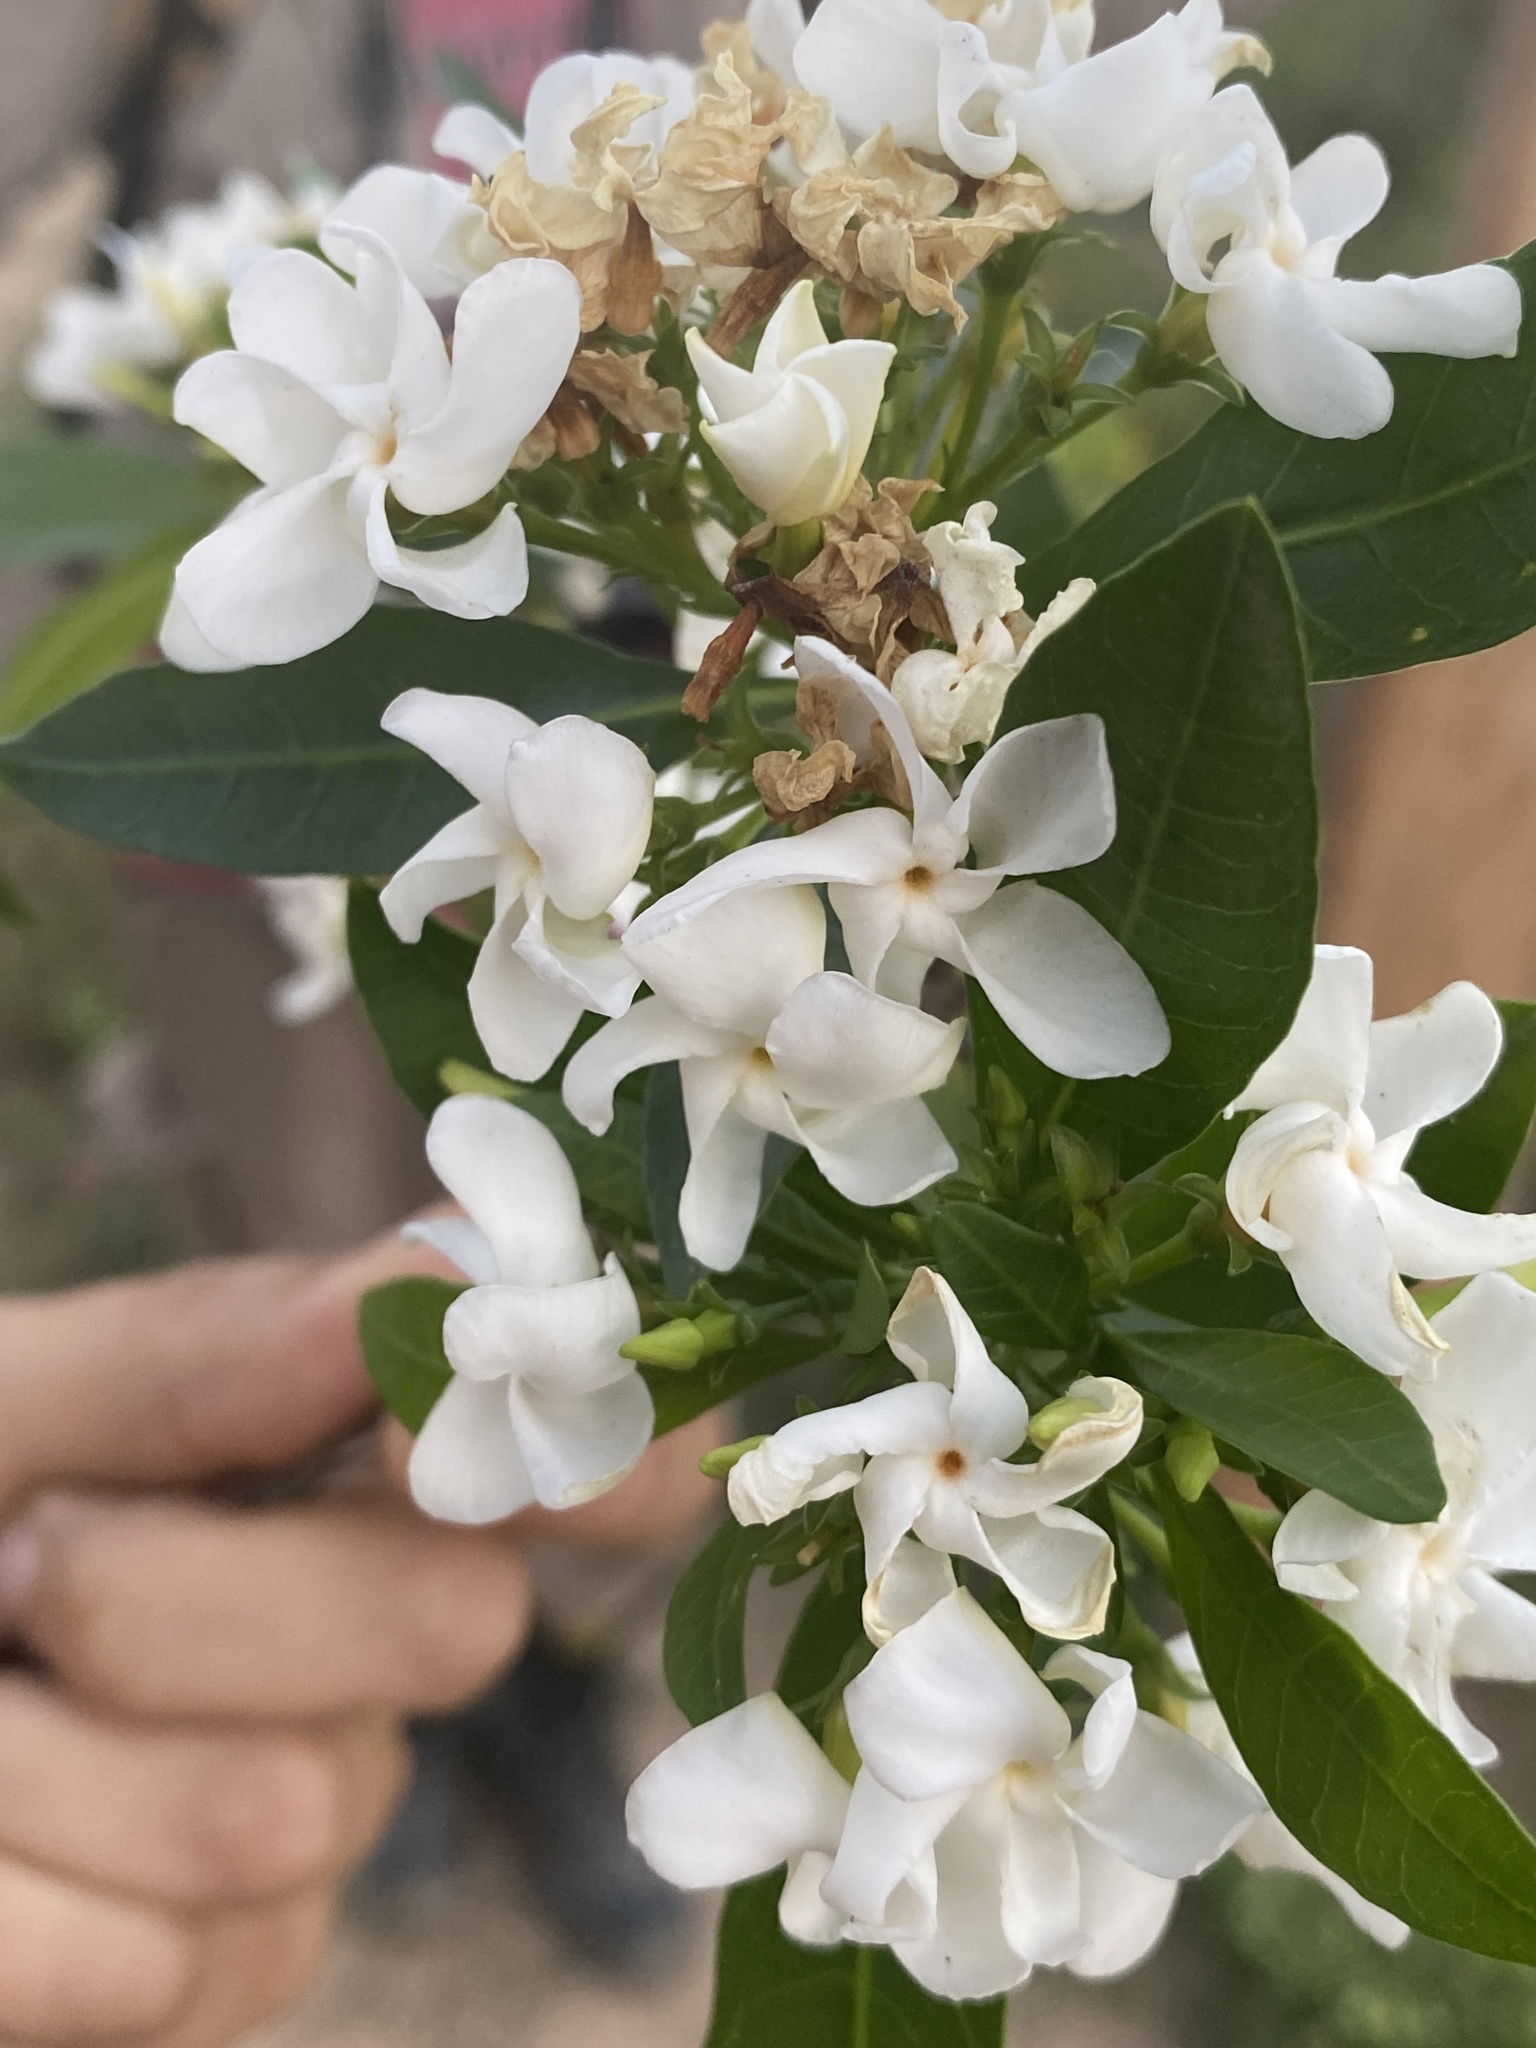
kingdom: Plantae
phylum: Tracheophyta
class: Magnoliopsida
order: Gentianales
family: Apocynaceae
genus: Tabernaemontana
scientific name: Tabernaemontana catharinensis
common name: Pinwheel-flower
